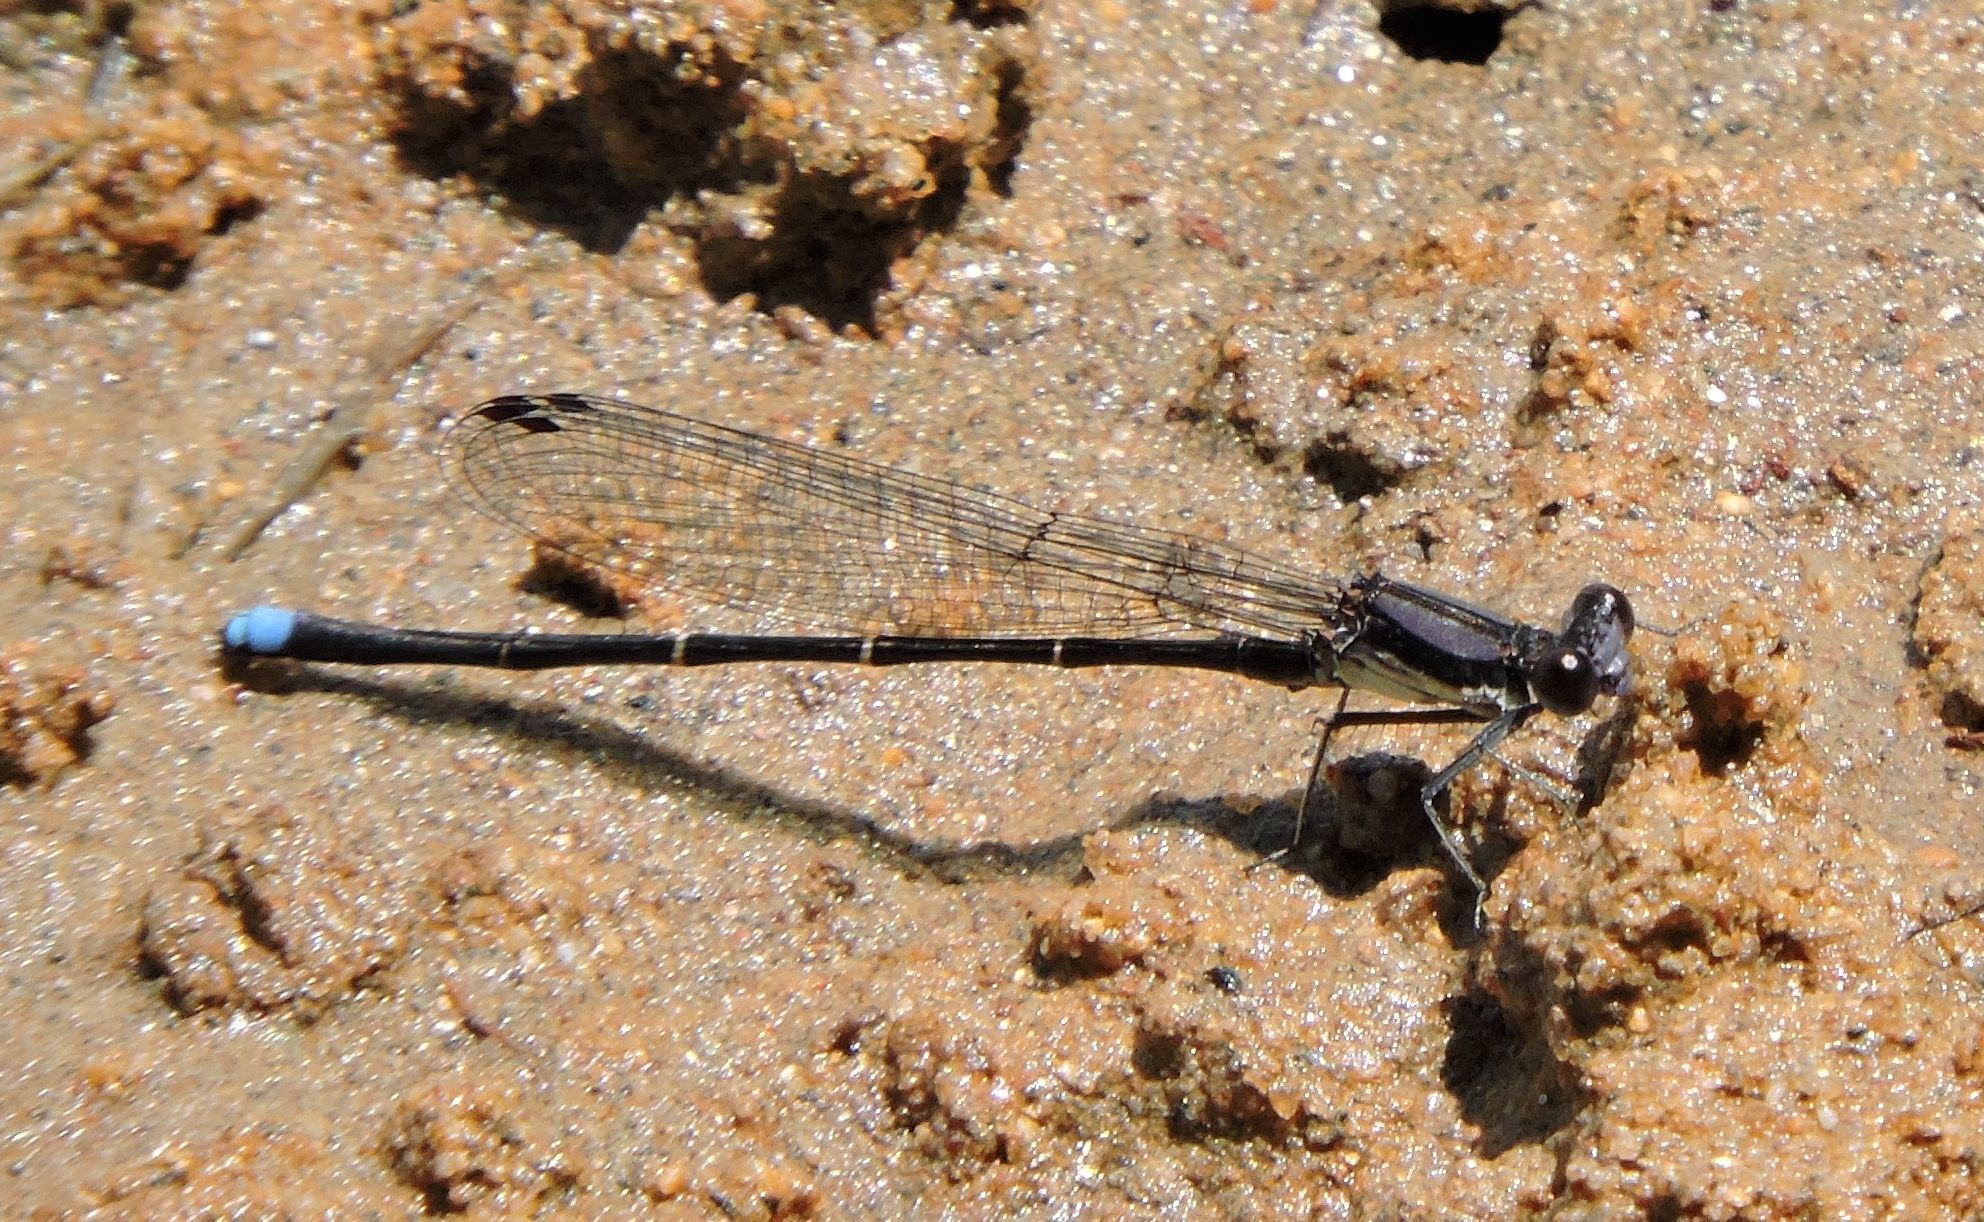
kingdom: Animalia
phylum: Arthropoda
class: Insecta
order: Odonata
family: Coenagrionidae
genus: Argia
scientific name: Argia tibialis
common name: Blue-tipped dancer
